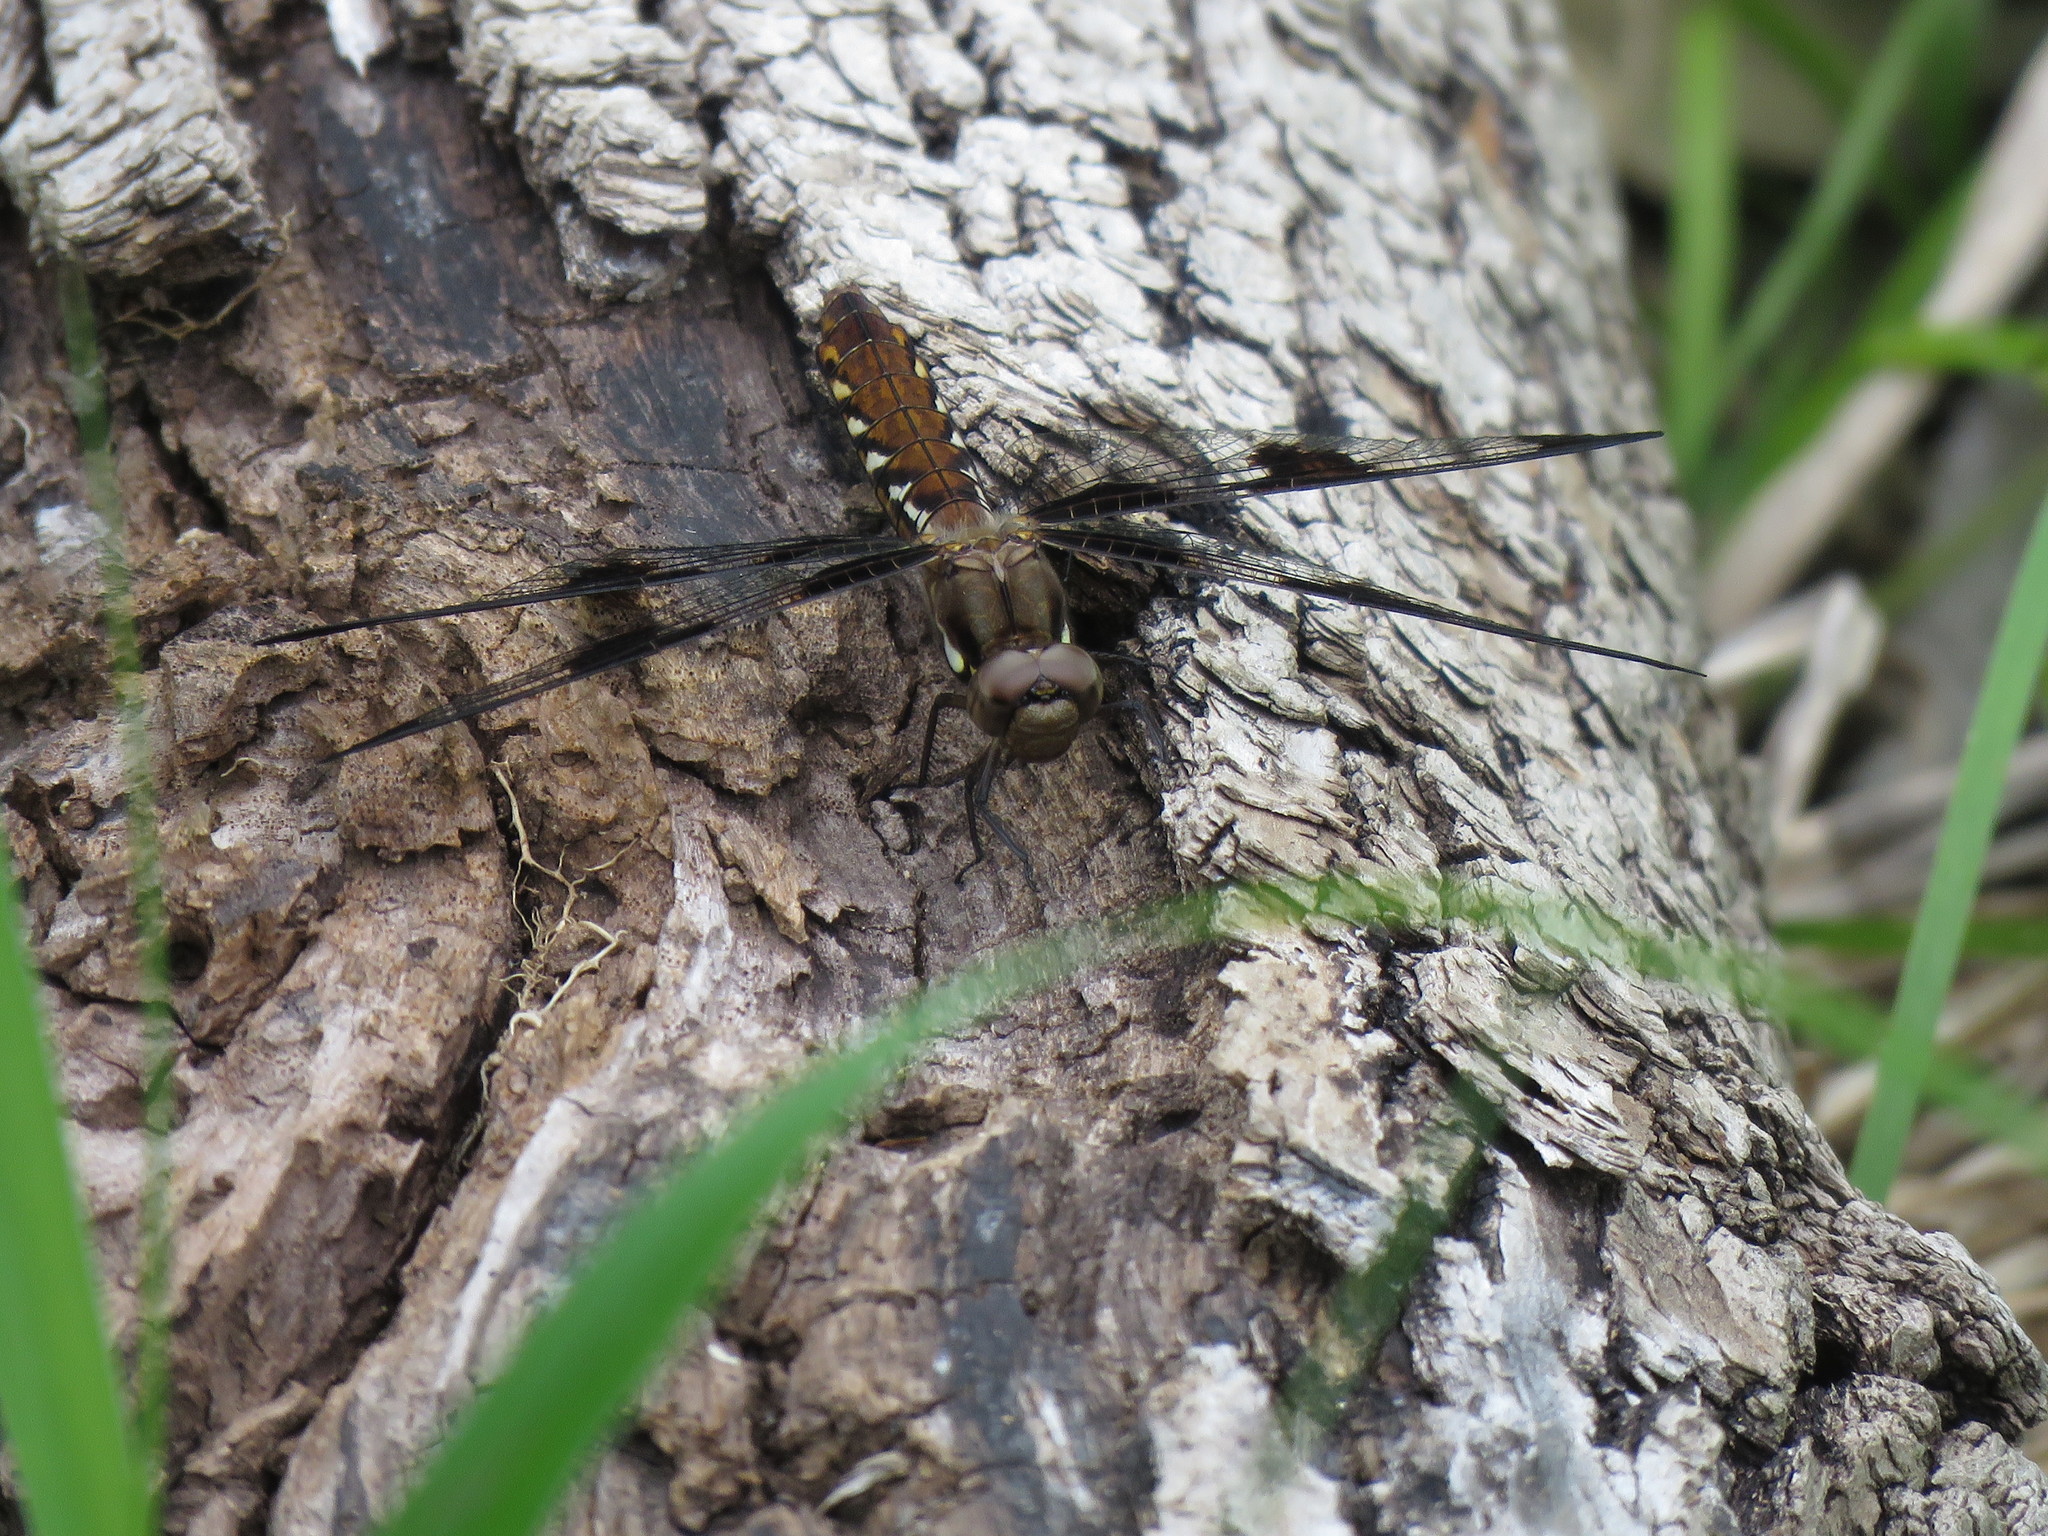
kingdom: Animalia
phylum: Arthropoda
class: Insecta
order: Odonata
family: Libellulidae
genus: Plathemis
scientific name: Plathemis lydia
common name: Common whitetail
